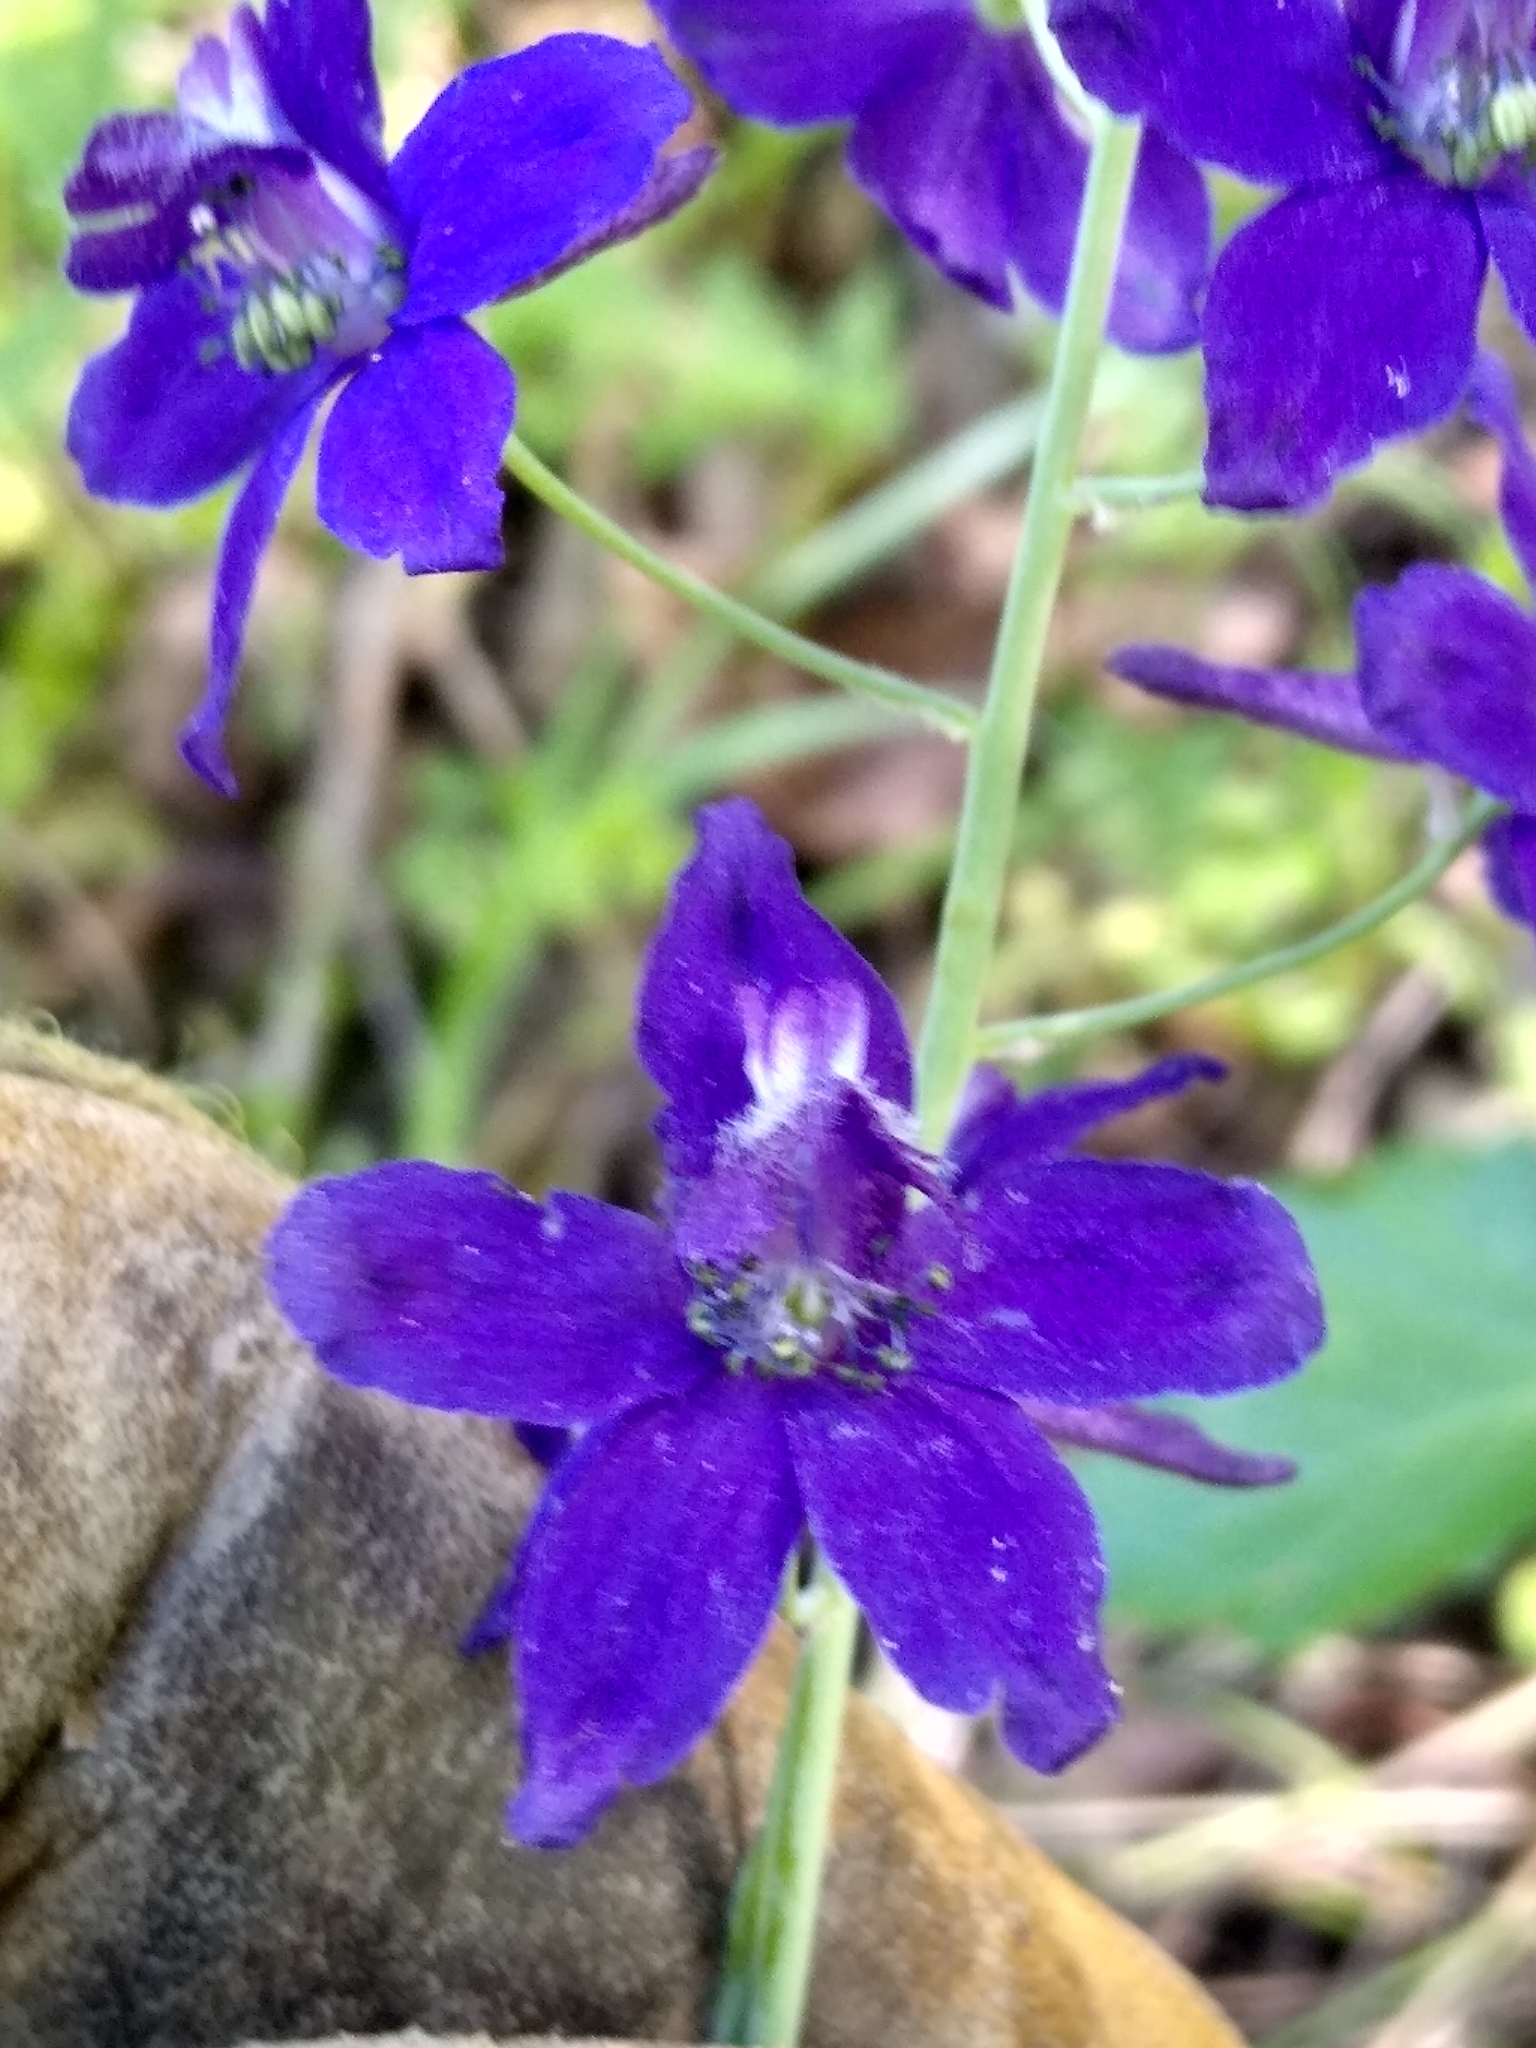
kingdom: Plantae
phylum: Tracheophyta
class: Magnoliopsida
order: Ranunculales
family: Ranunculaceae
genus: Delphinium
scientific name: Delphinium patens
